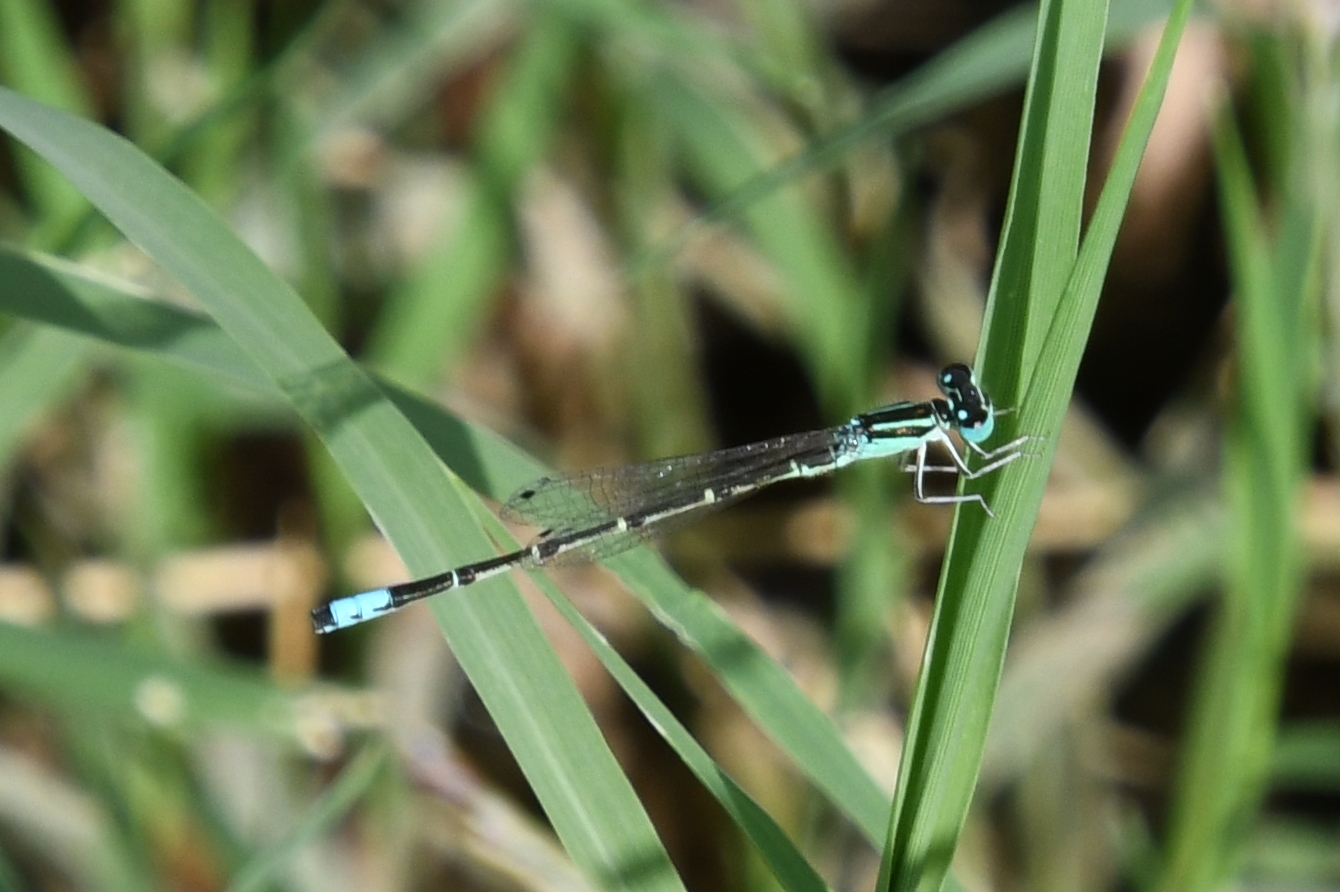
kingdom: Animalia
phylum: Arthropoda
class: Insecta
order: Odonata
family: Coenagrionidae
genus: Ischnura
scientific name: Ischnura demorsa
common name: Mexican forktail
